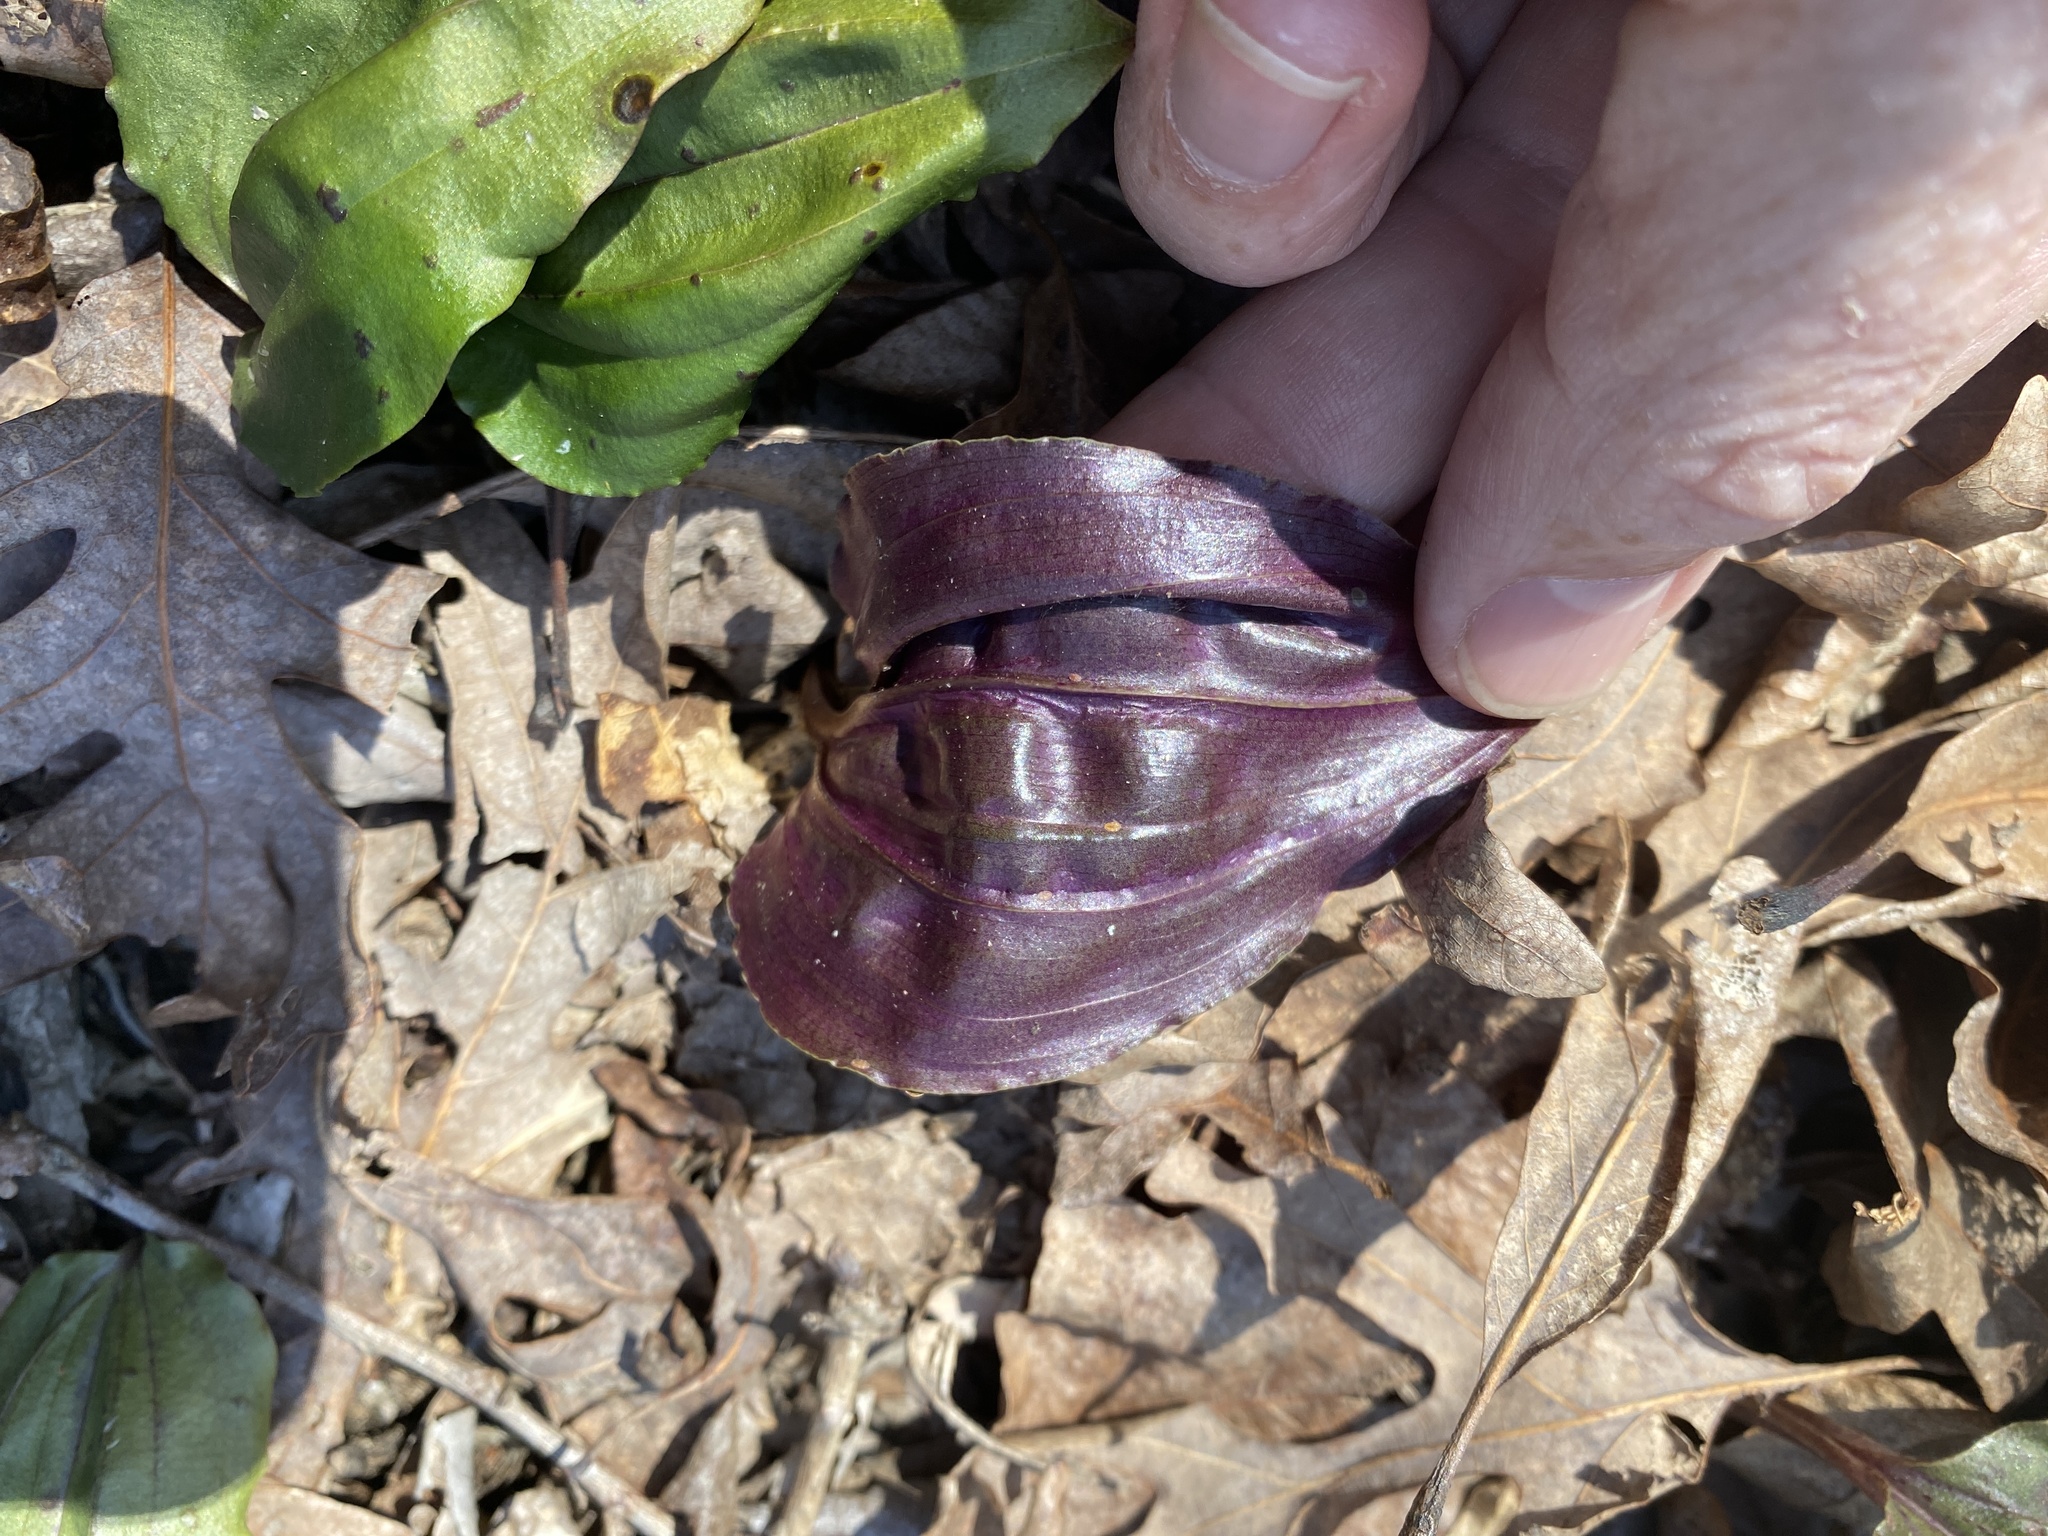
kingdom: Plantae
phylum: Tracheophyta
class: Liliopsida
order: Asparagales
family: Orchidaceae
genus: Tipularia
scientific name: Tipularia discolor
